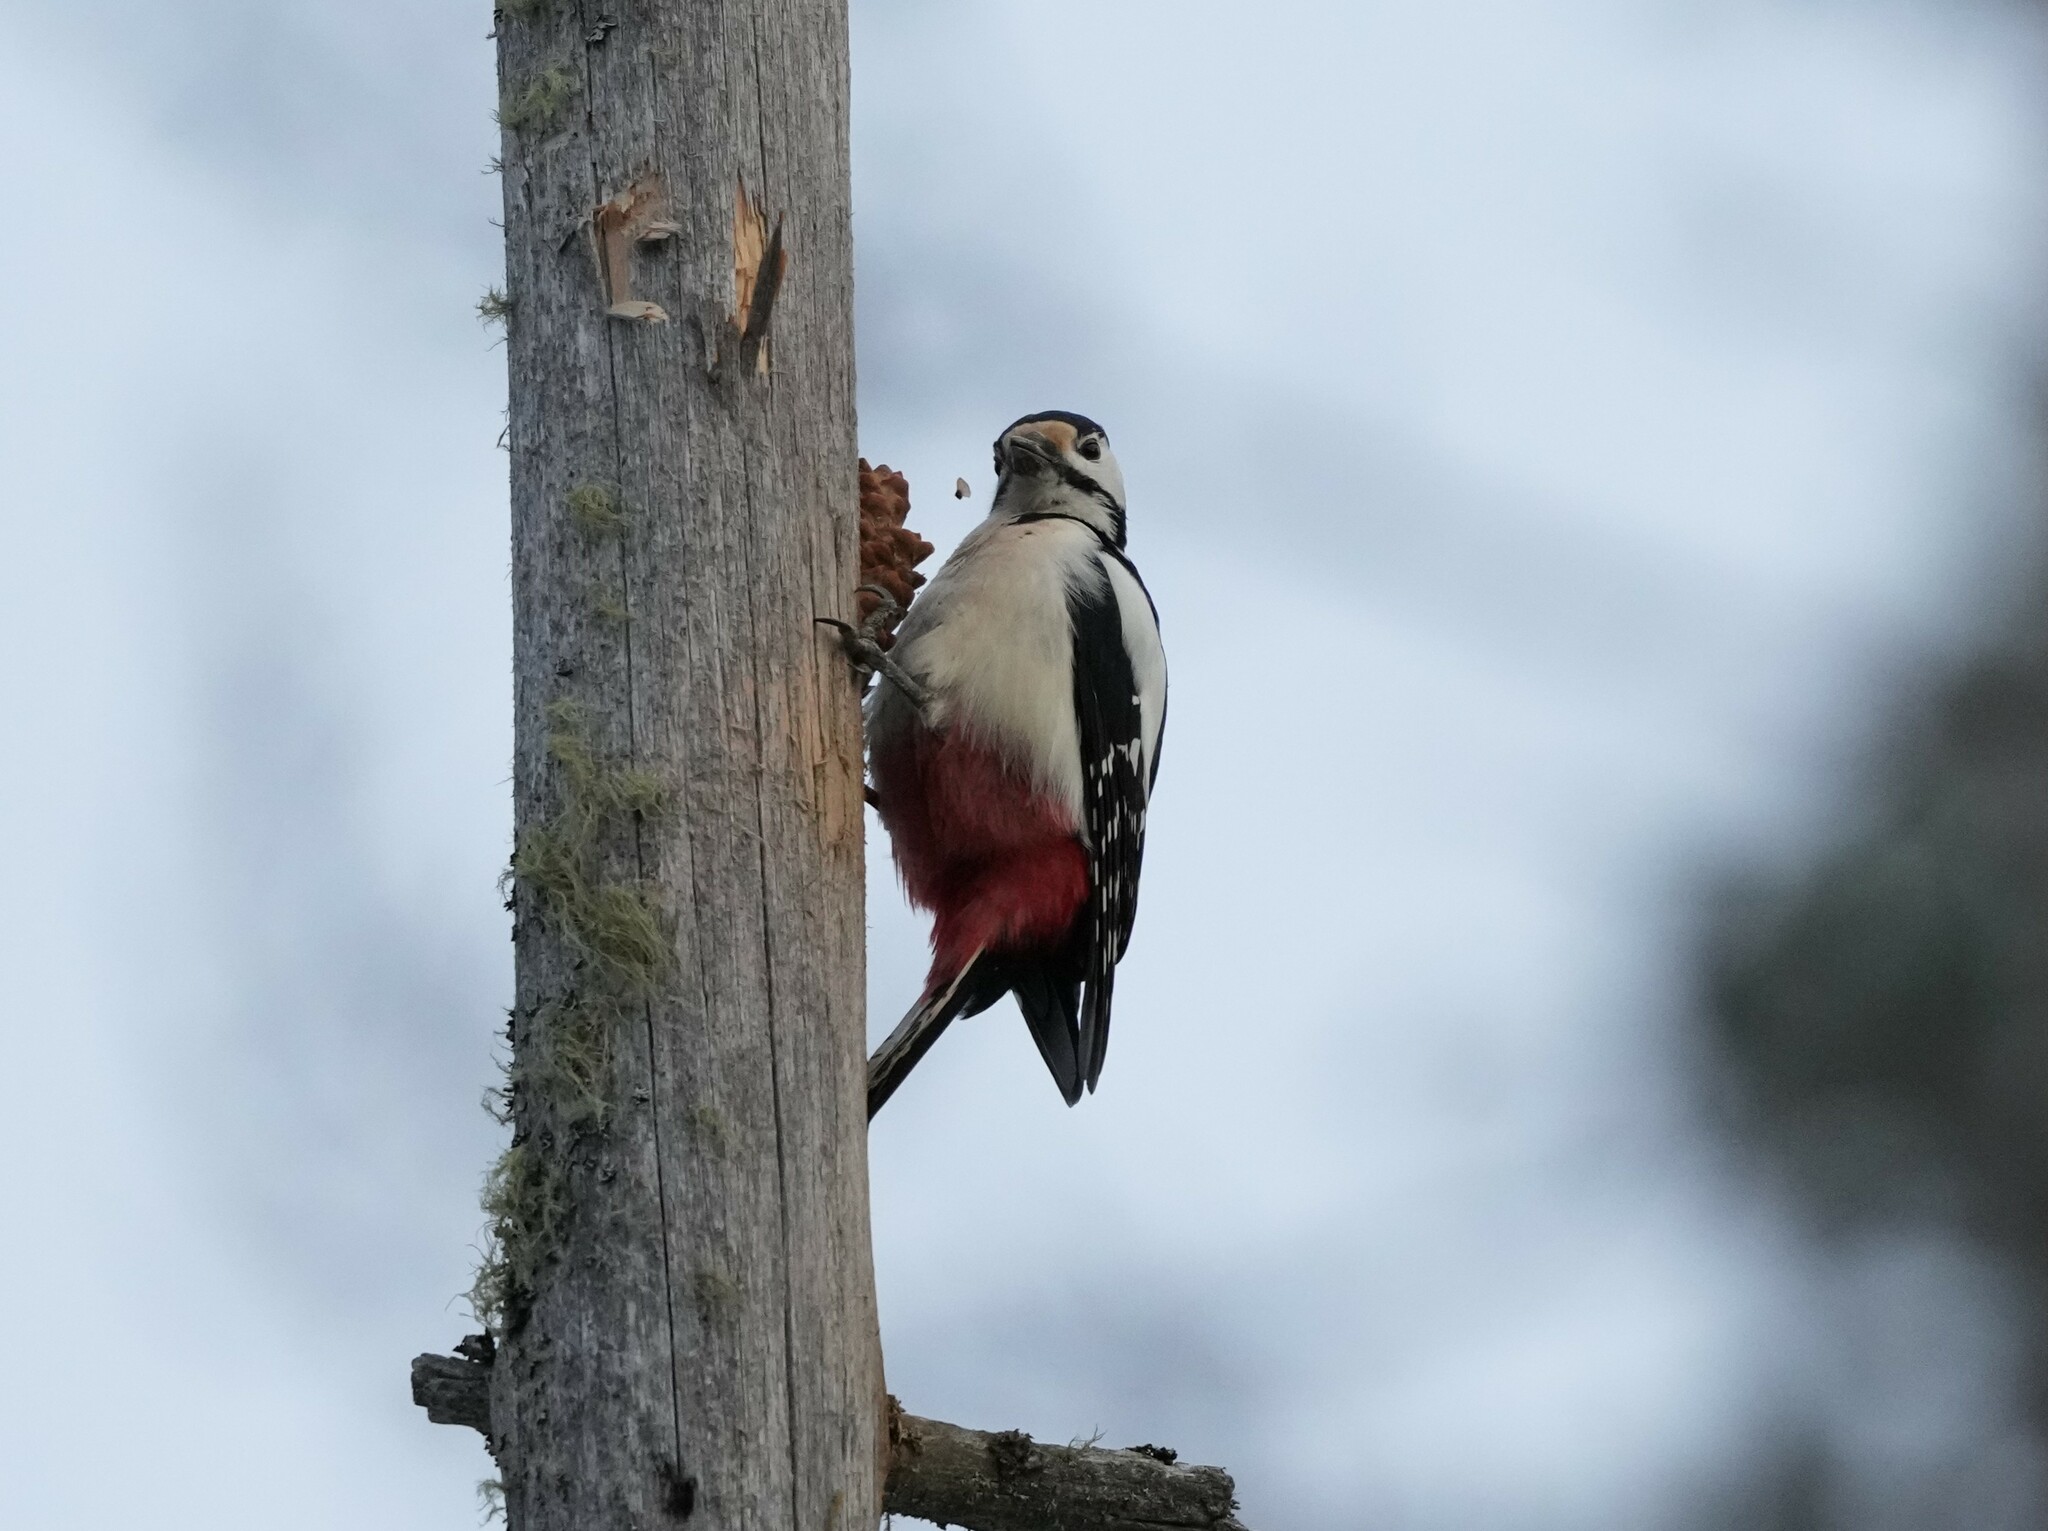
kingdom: Animalia
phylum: Chordata
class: Aves
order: Piciformes
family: Picidae
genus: Dendrocopos
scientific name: Dendrocopos major
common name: Great spotted woodpecker
